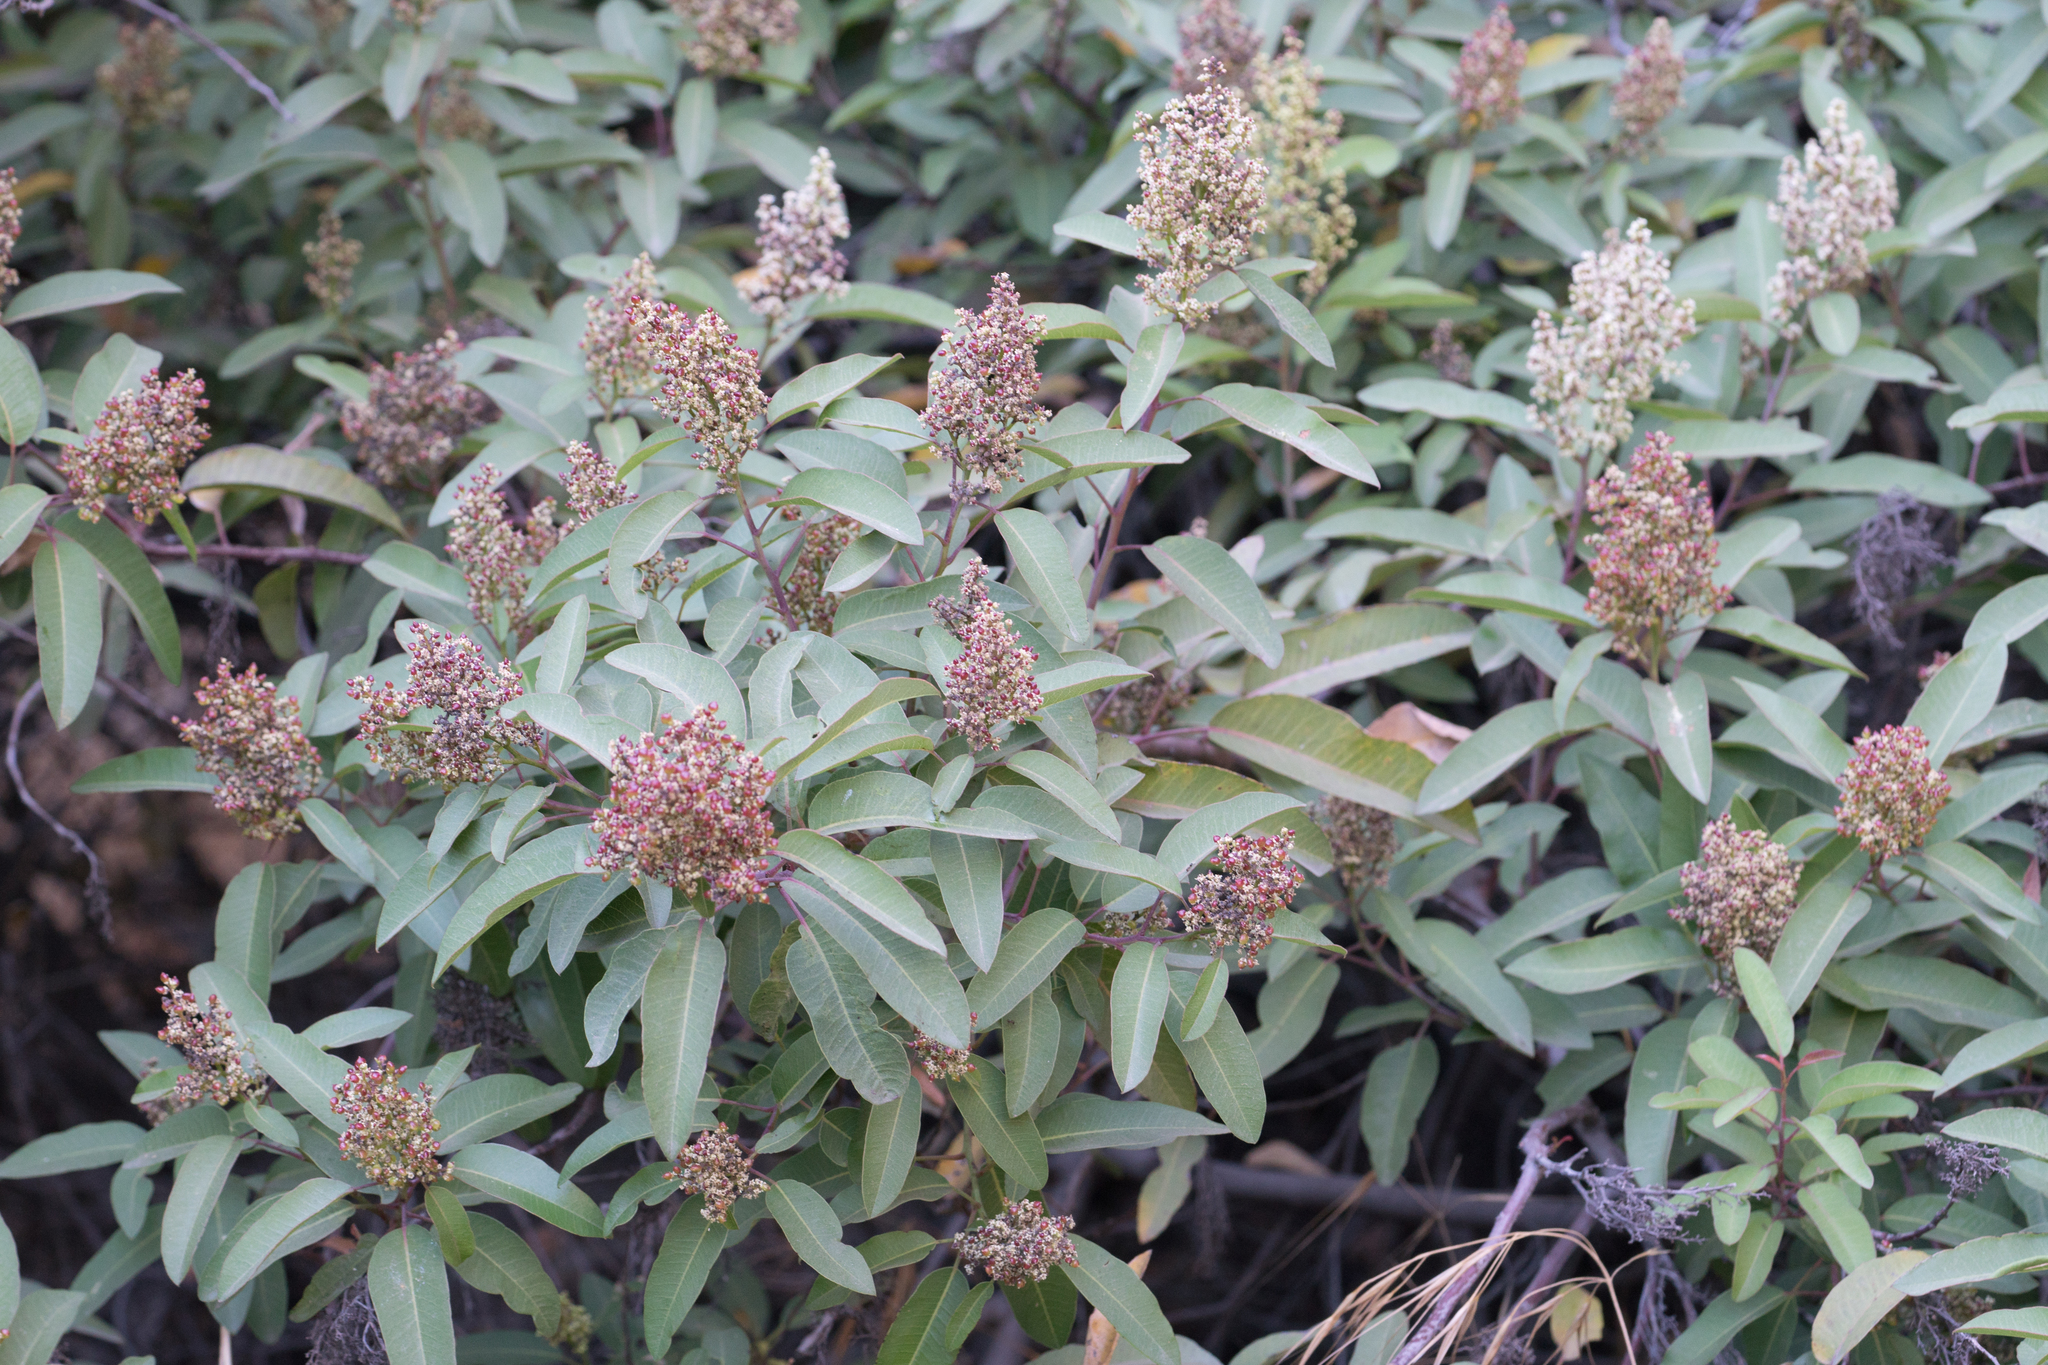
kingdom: Plantae
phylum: Tracheophyta
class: Magnoliopsida
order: Sapindales
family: Anacardiaceae
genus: Malosma
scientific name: Malosma laurina
